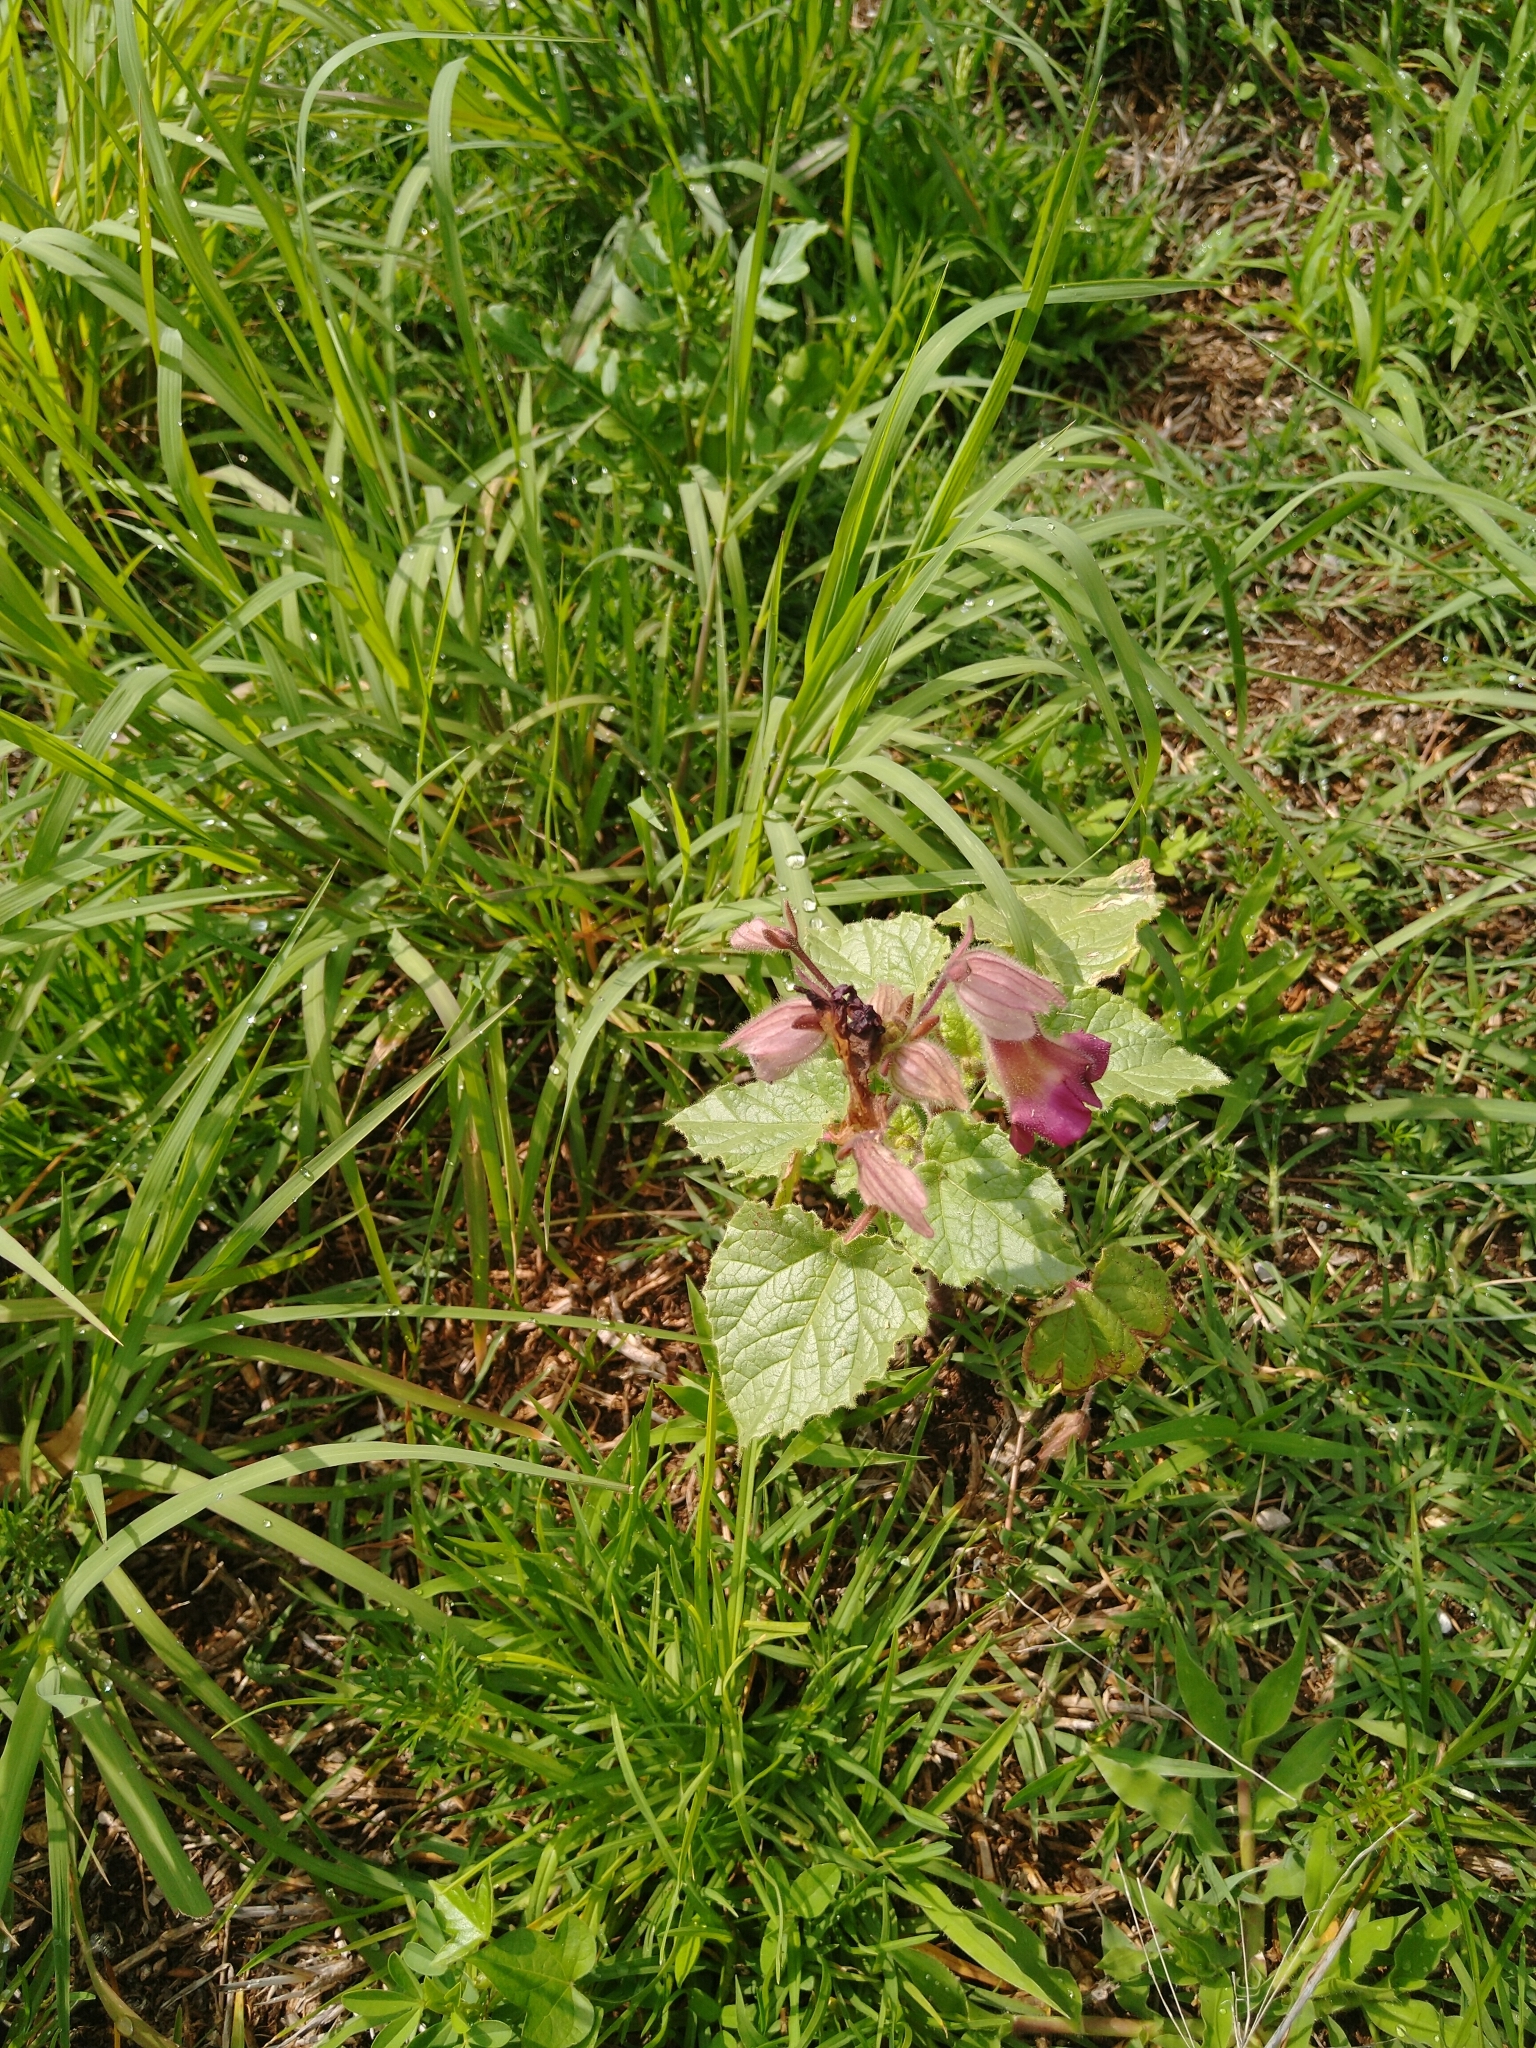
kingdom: Plantae
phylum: Tracheophyta
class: Magnoliopsida
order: Lamiales
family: Martyniaceae
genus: Proboscidea
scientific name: Proboscidea louisianica
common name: Elephant tusks
